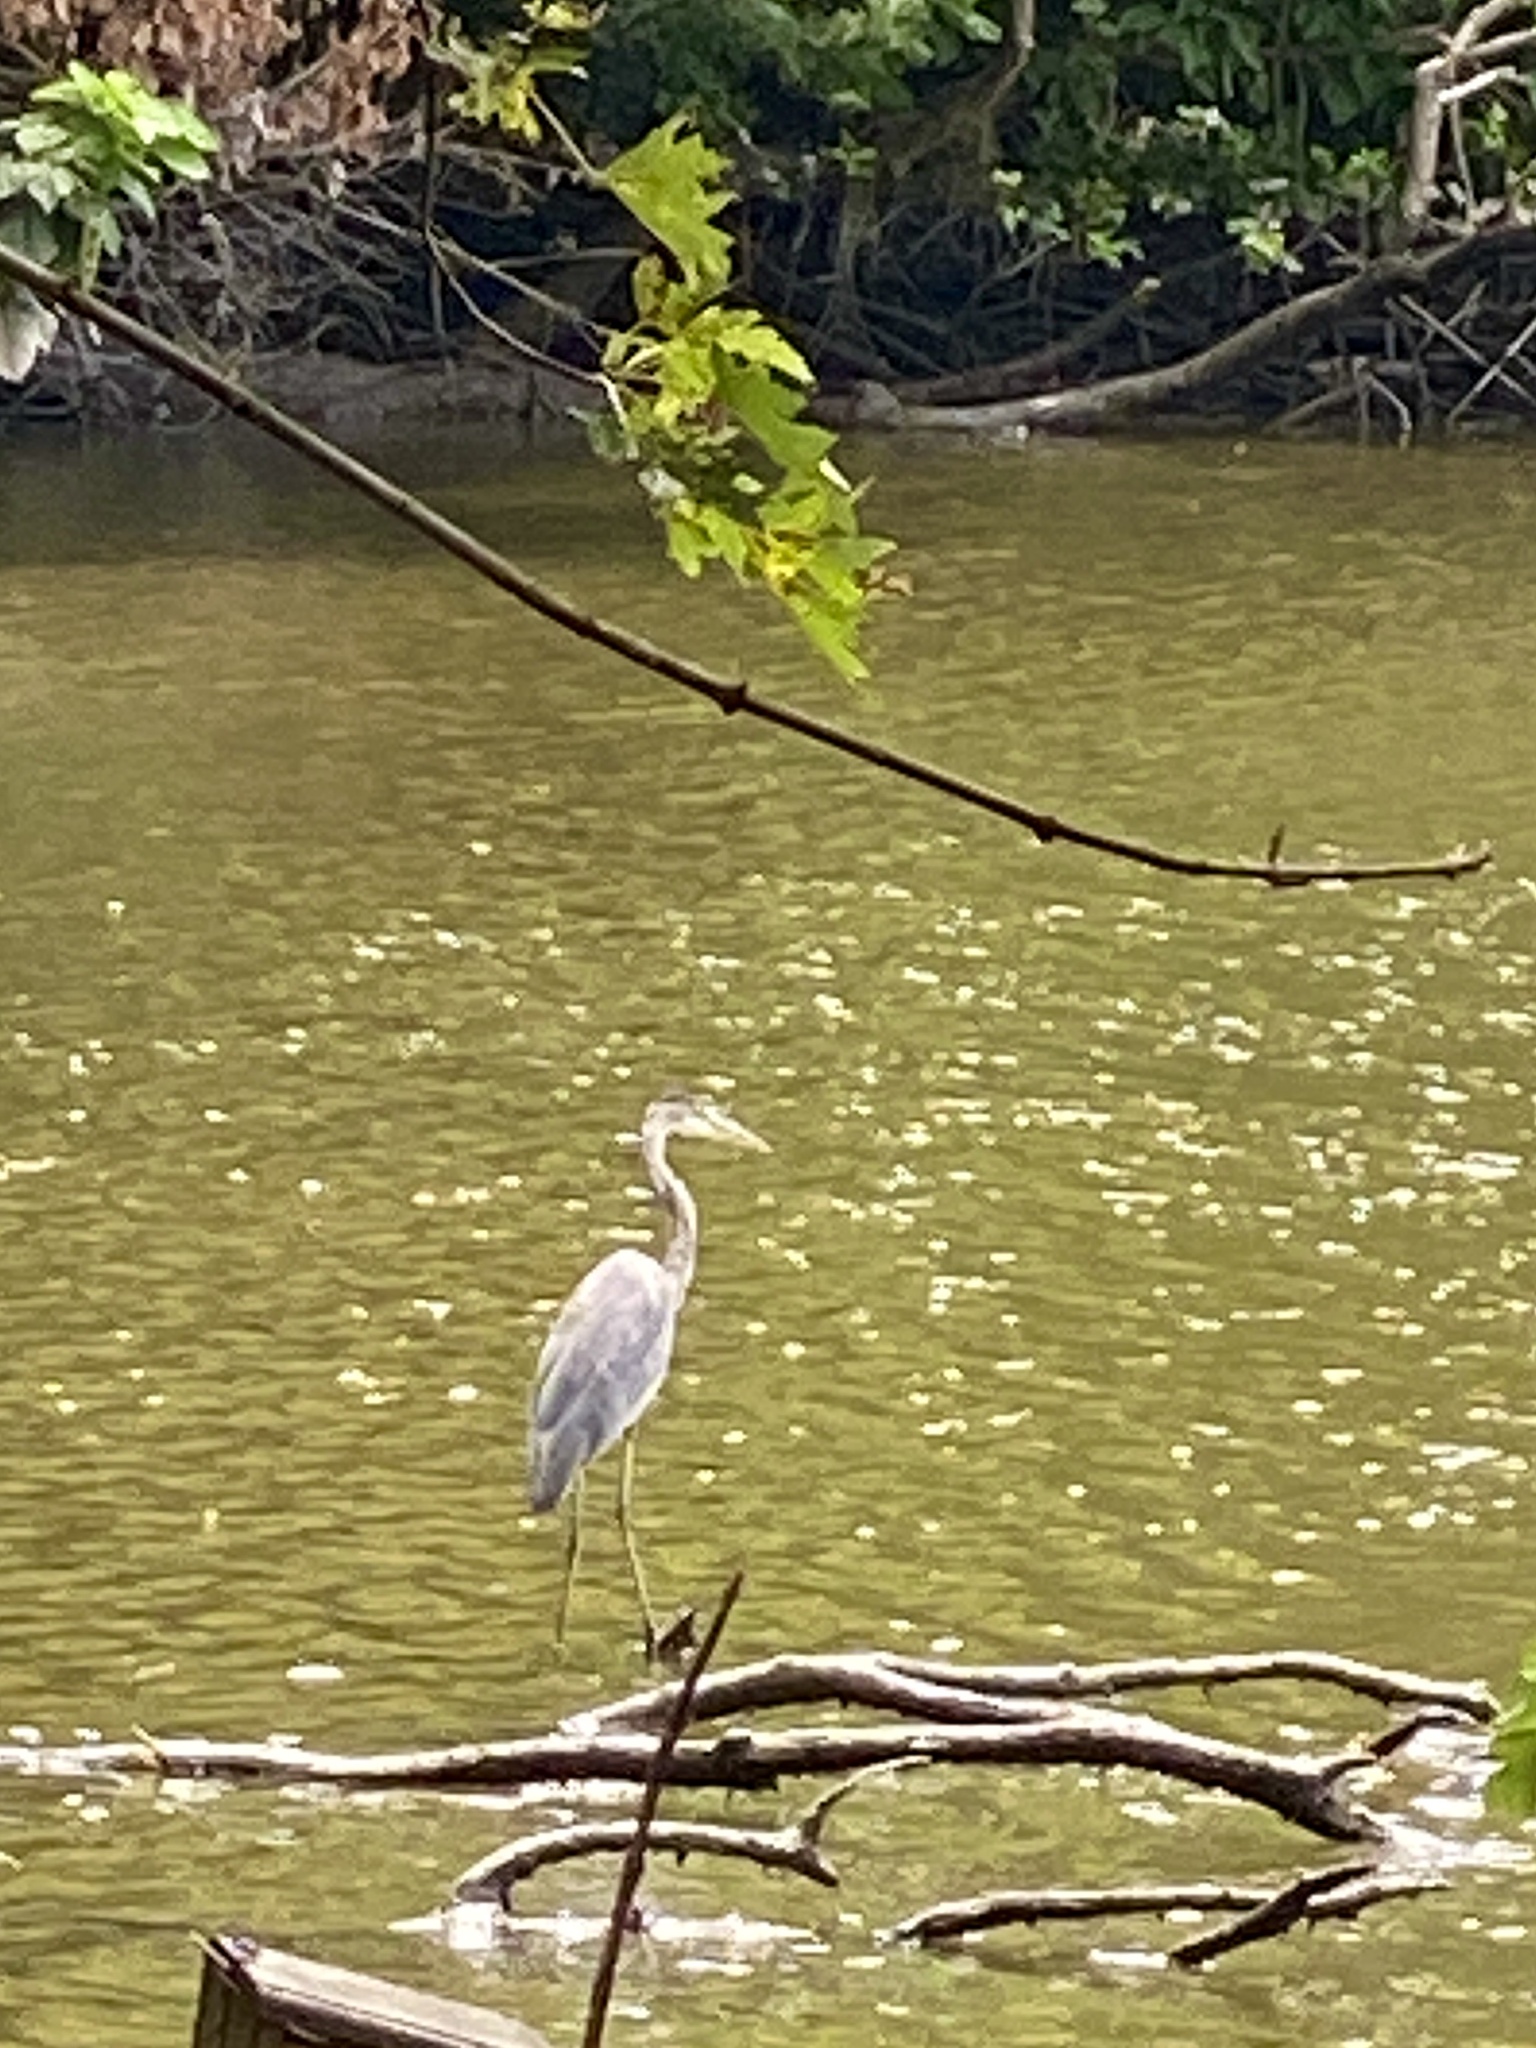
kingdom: Animalia
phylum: Chordata
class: Aves
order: Pelecaniformes
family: Ardeidae
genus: Ardea
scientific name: Ardea herodias
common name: Great blue heron
